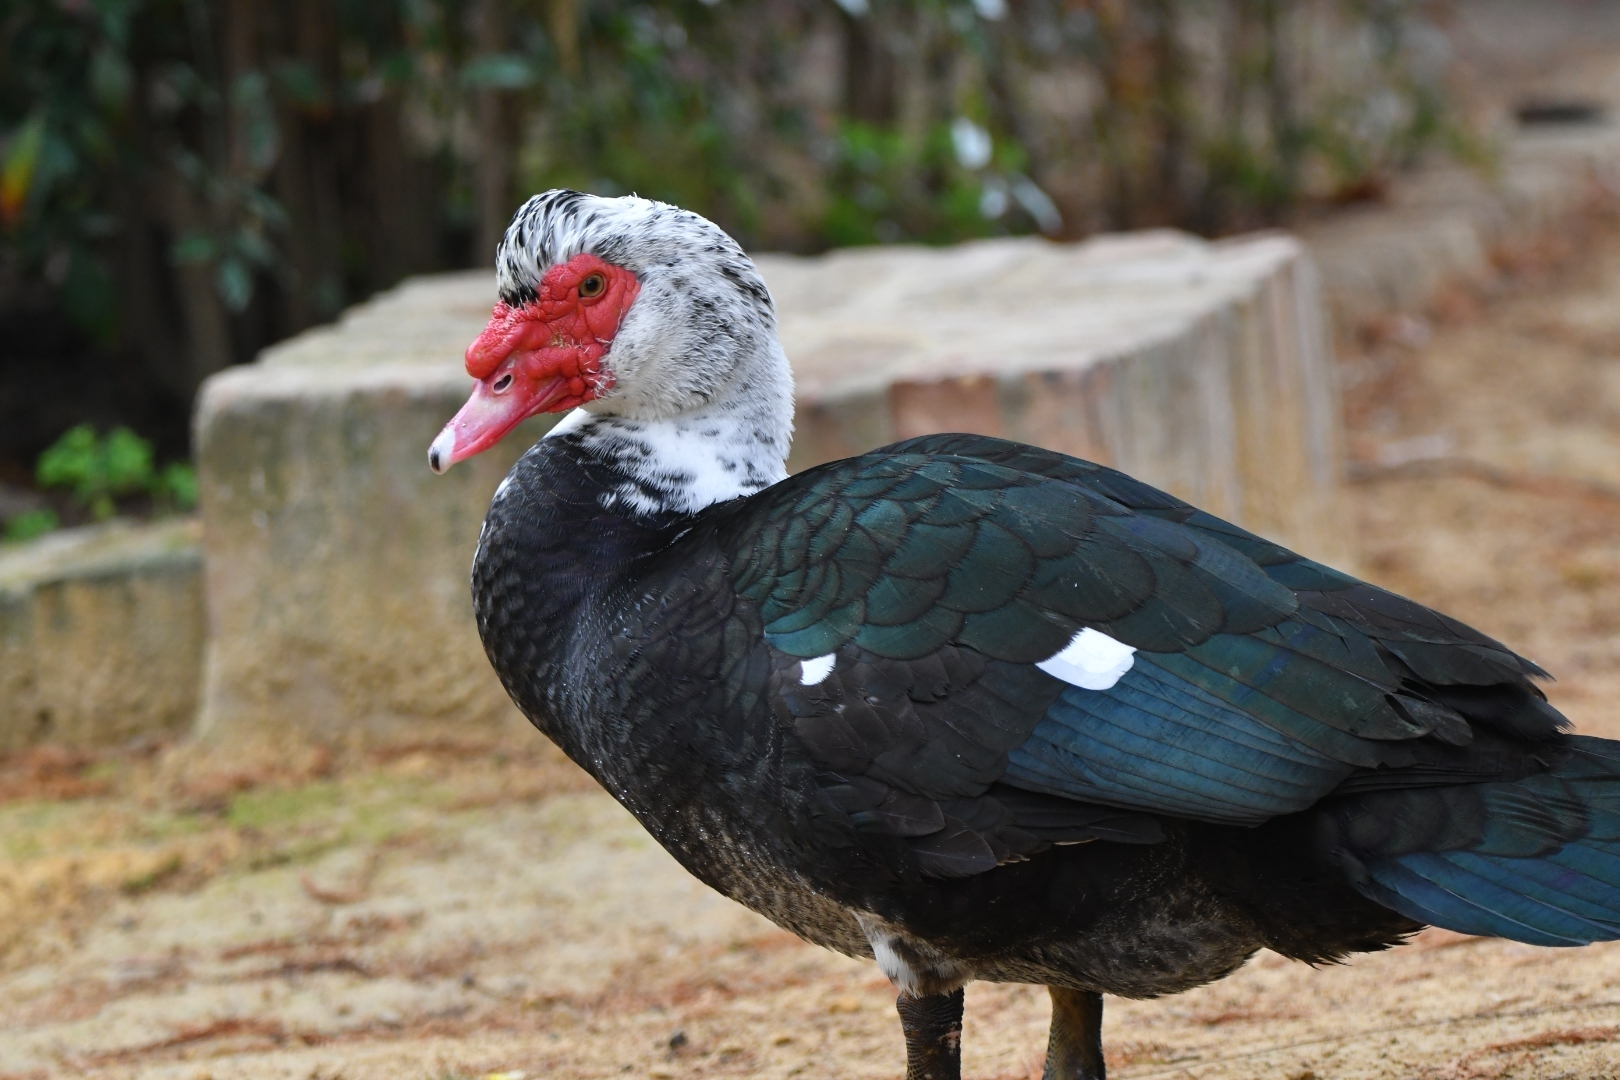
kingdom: Animalia
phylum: Chordata
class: Aves
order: Anseriformes
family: Anatidae
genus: Cairina
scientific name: Cairina moschata
